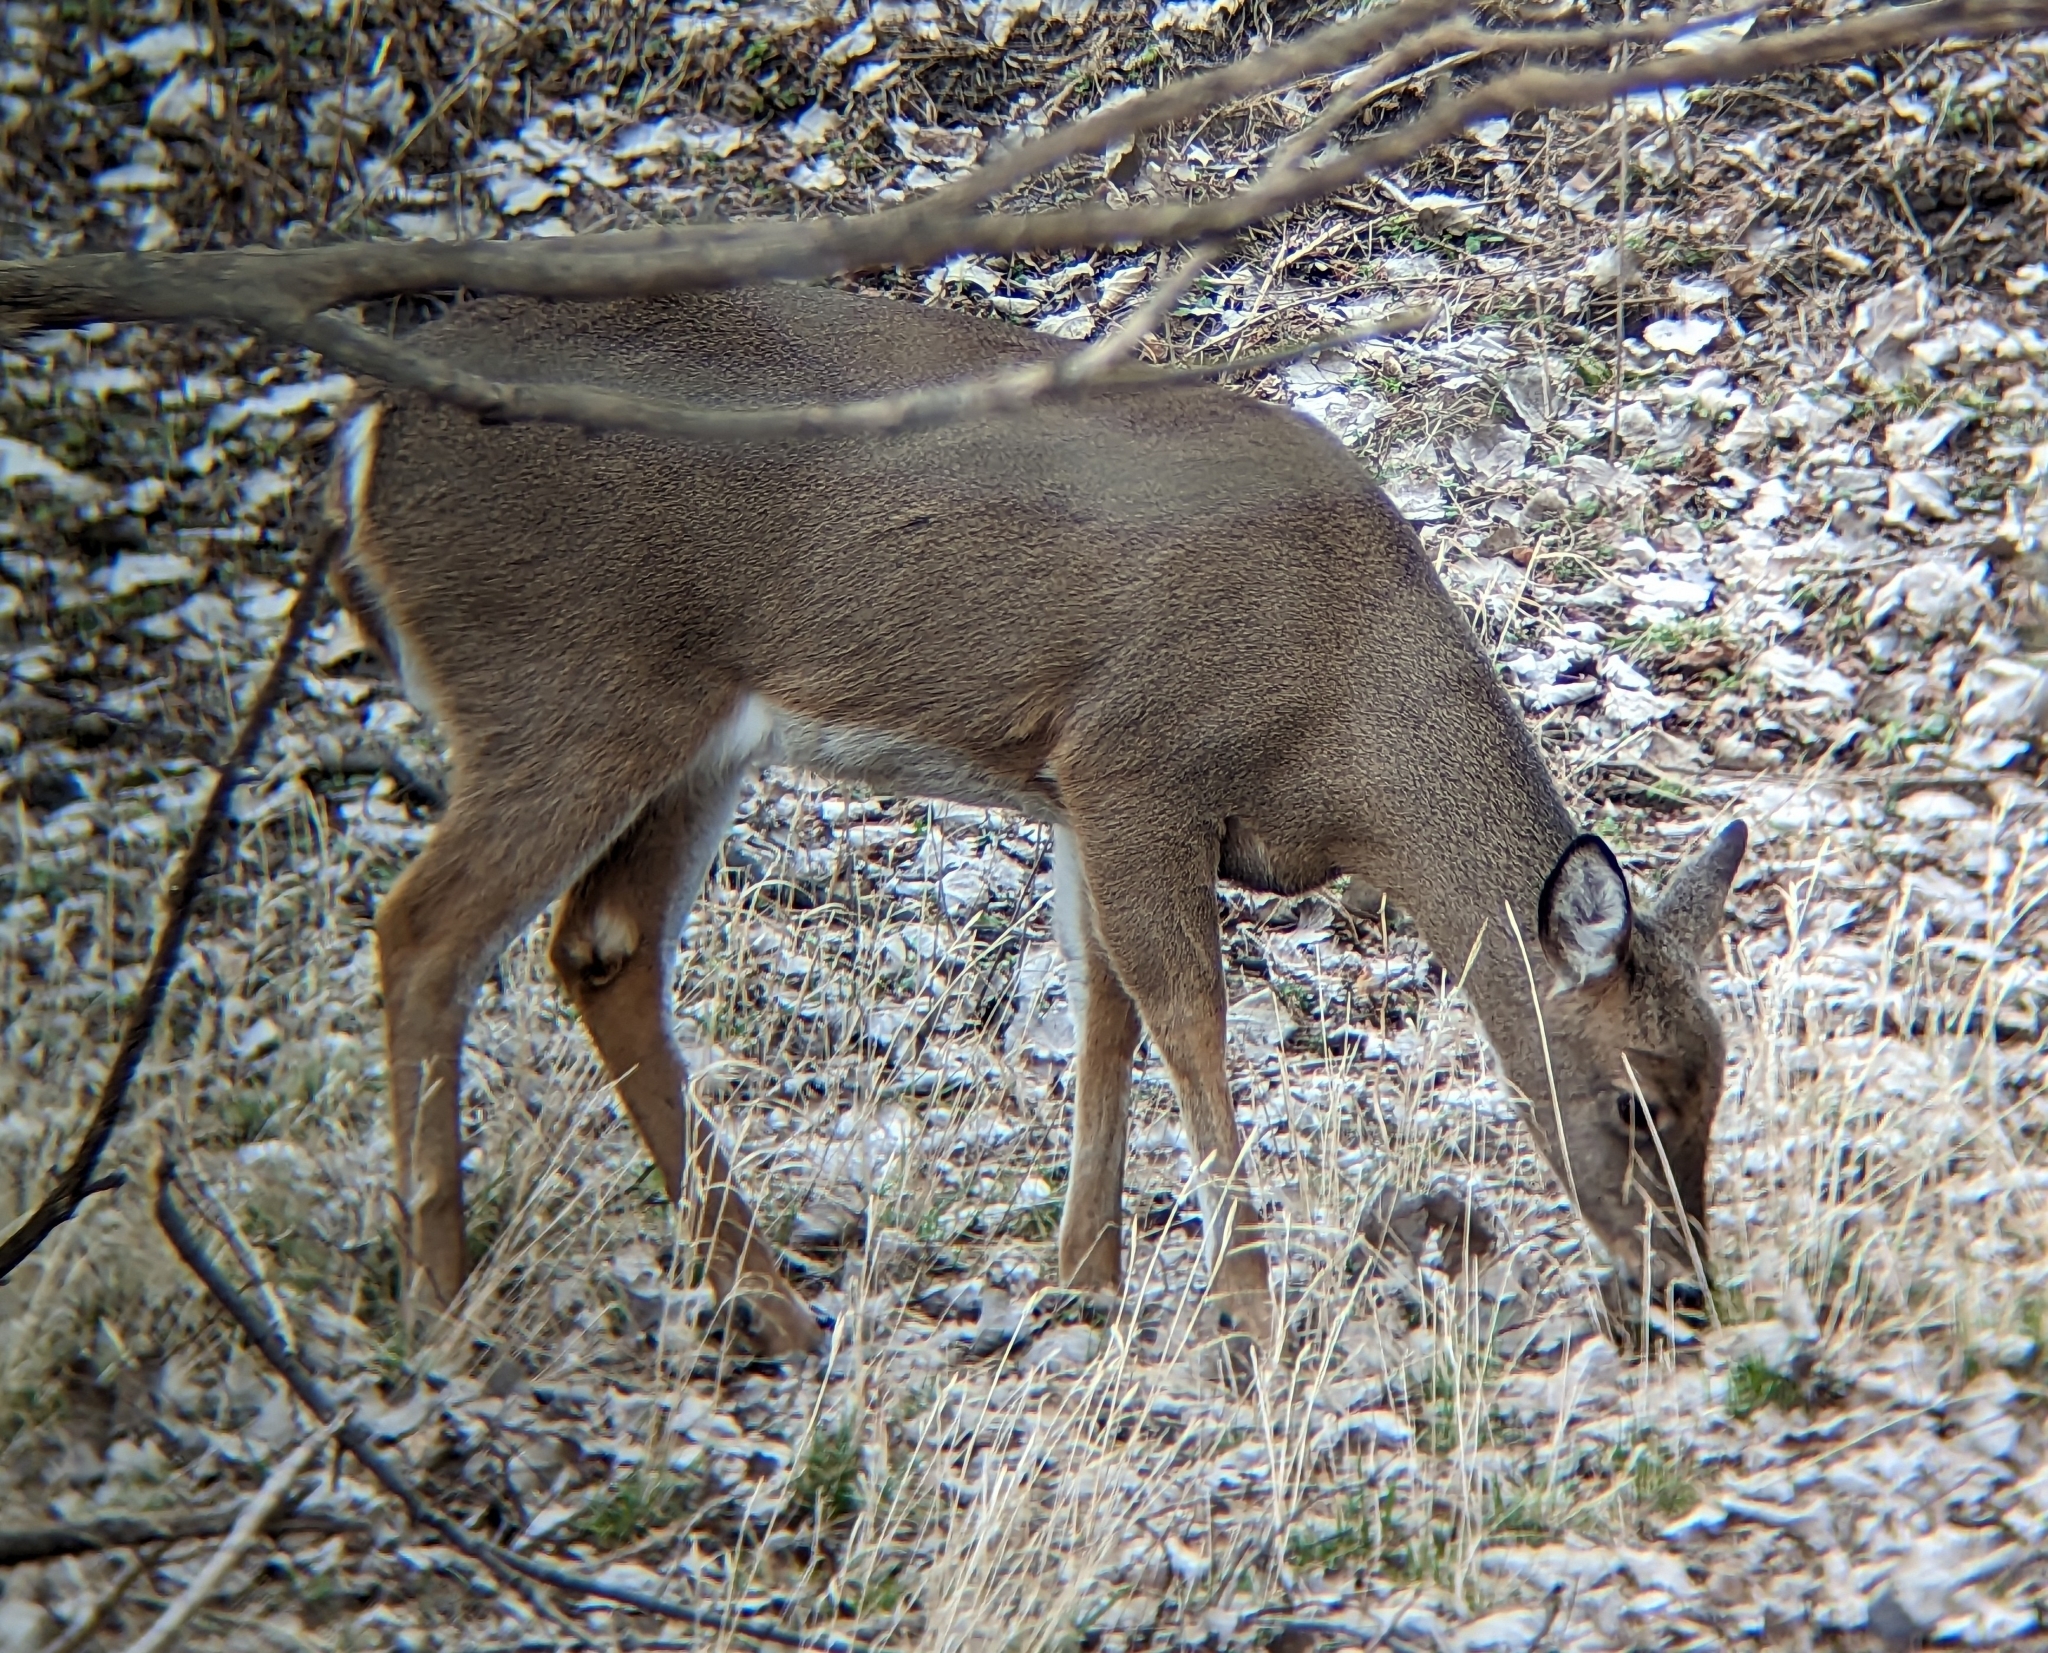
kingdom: Animalia
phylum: Chordata
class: Mammalia
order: Artiodactyla
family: Cervidae
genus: Odocoileus
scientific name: Odocoileus virginianus
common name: White-tailed deer
